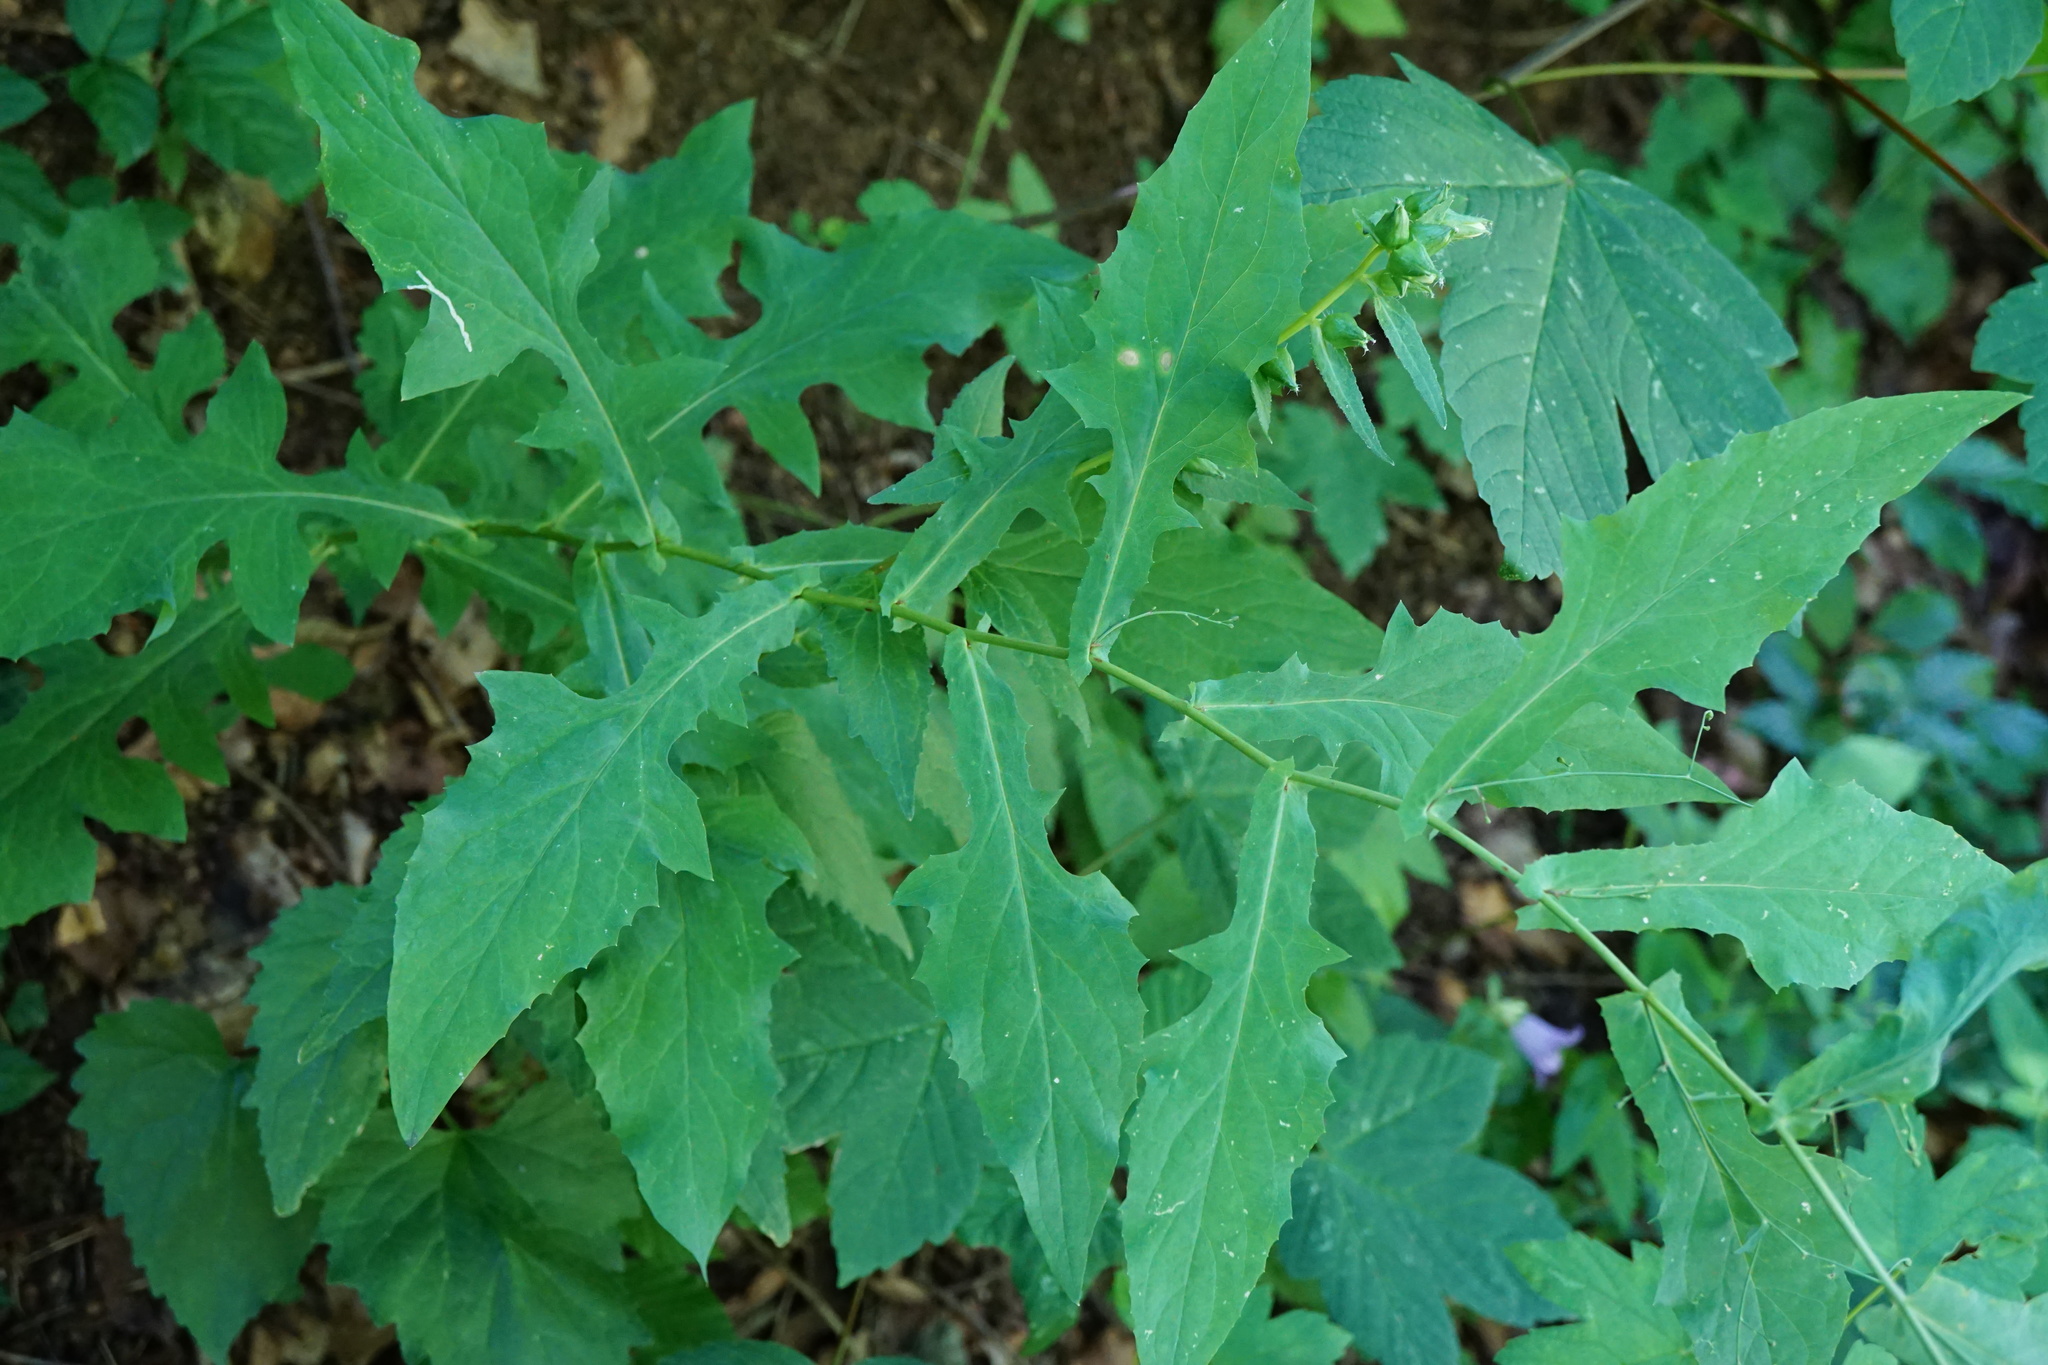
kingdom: Plantae
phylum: Tracheophyta
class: Magnoliopsida
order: Asterales
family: Asteraceae
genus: Prenanthes
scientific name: Prenanthes purpurea
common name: Purple lettuce
